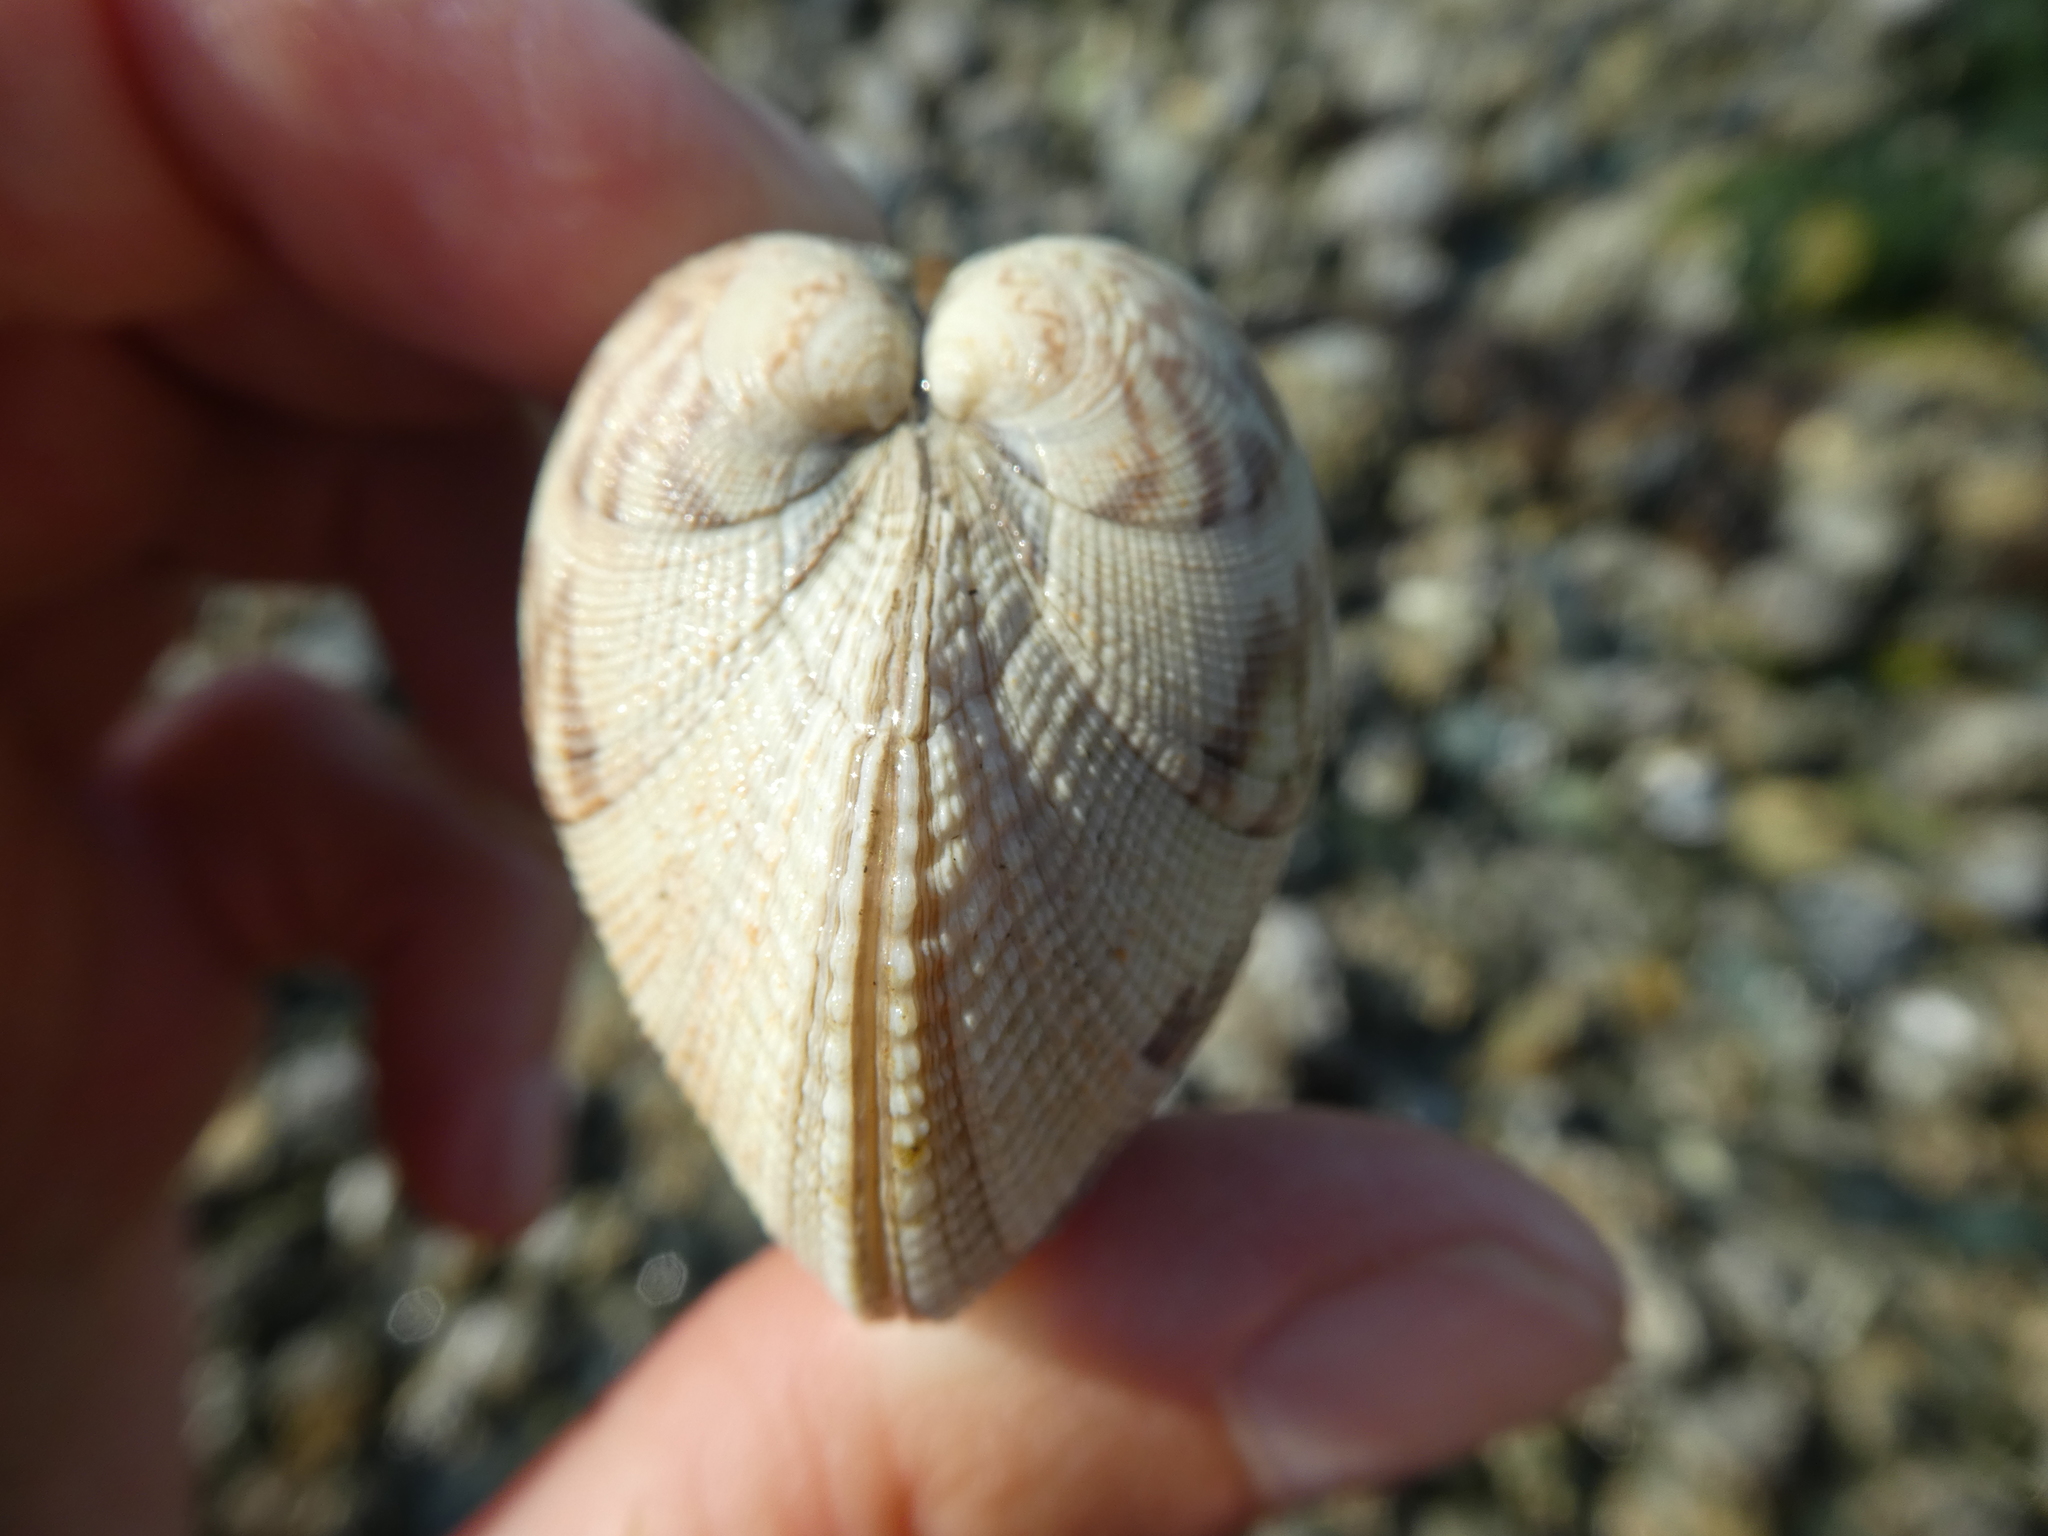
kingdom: Animalia
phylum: Mollusca
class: Bivalvia
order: Venerida
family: Veneridae
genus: Leukoma
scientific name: Leukoma staminea
